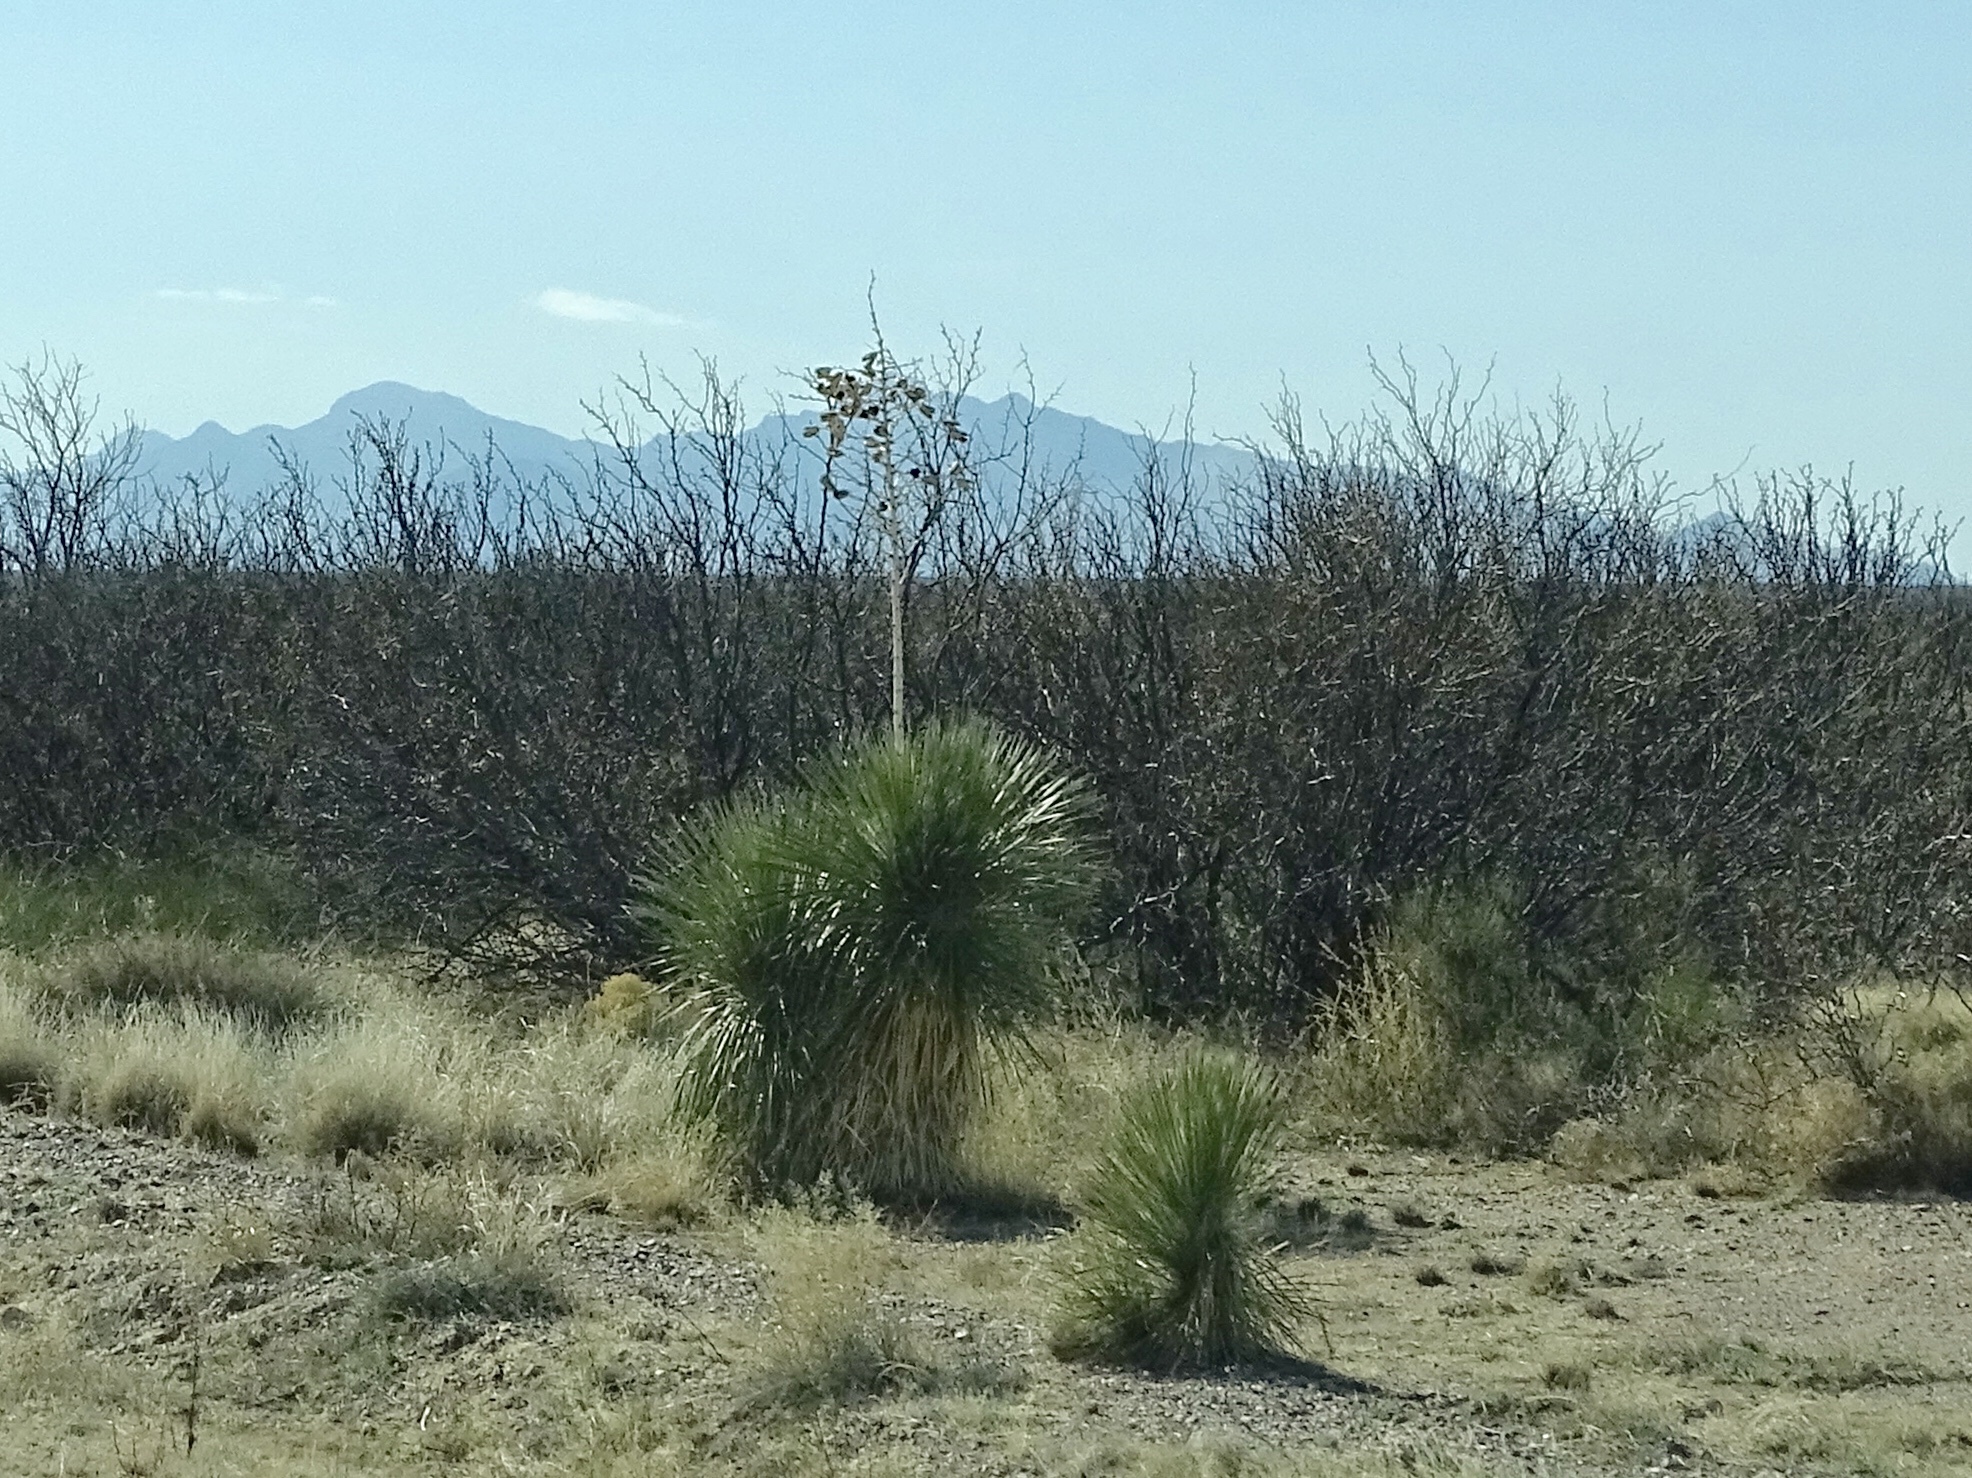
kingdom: Plantae
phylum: Tracheophyta
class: Liliopsida
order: Asparagales
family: Asparagaceae
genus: Yucca
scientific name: Yucca elata
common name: Palmella
